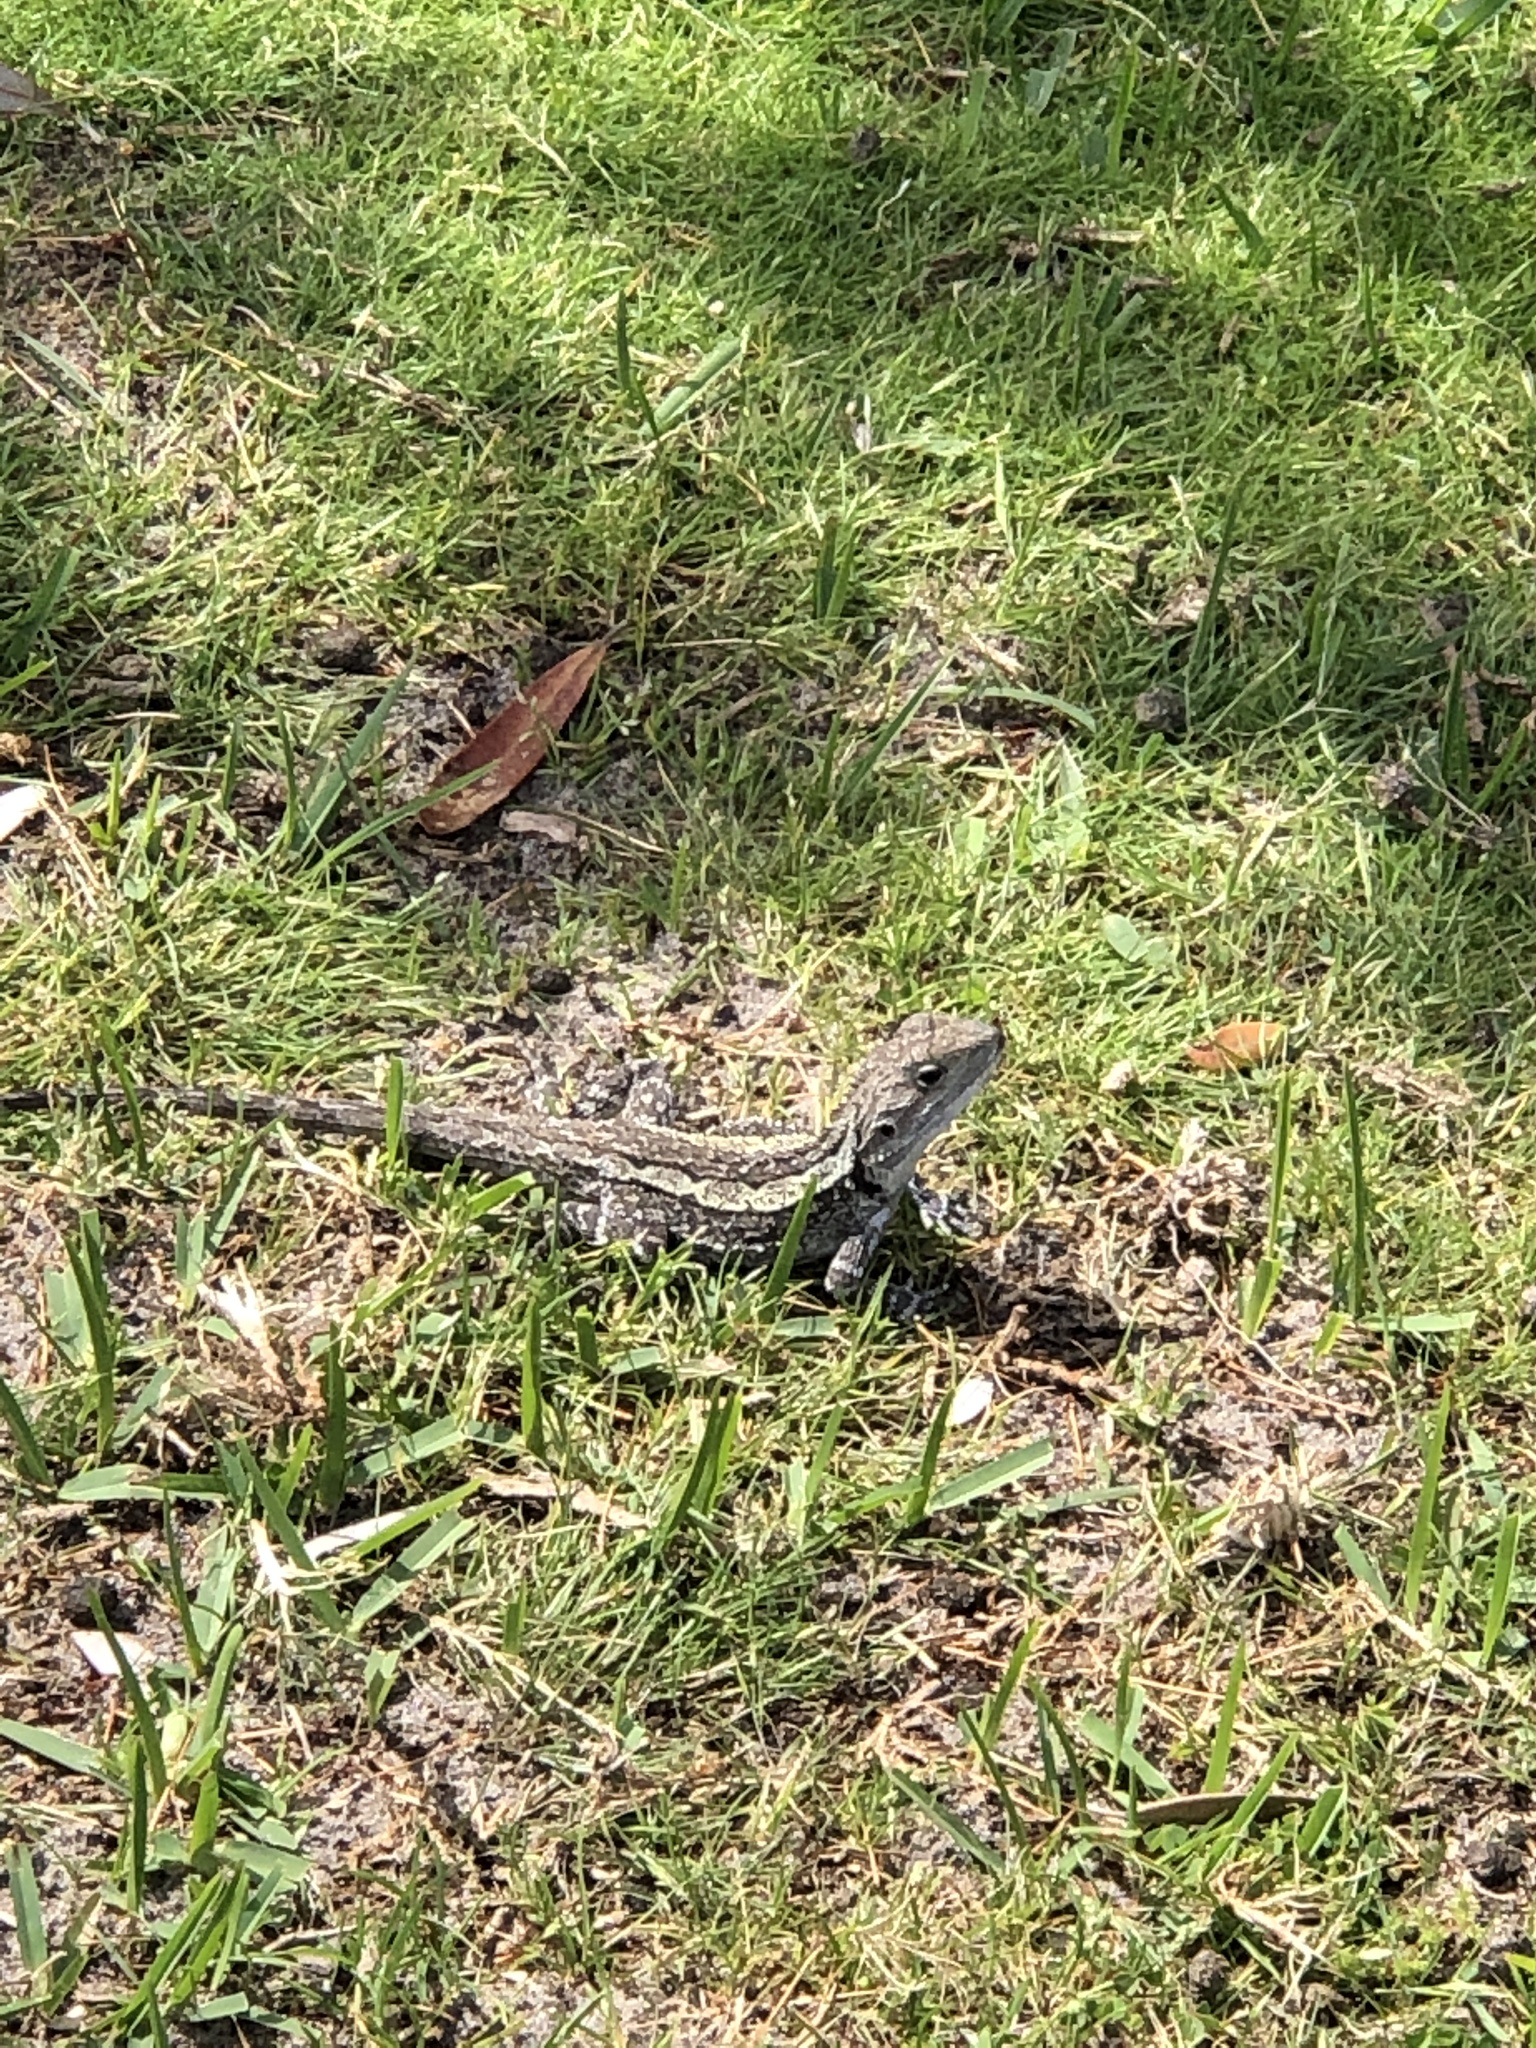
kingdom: Animalia
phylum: Chordata
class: Squamata
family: Agamidae
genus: Amphibolurus
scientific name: Amphibolurus muricatus
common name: Jacky lizard
